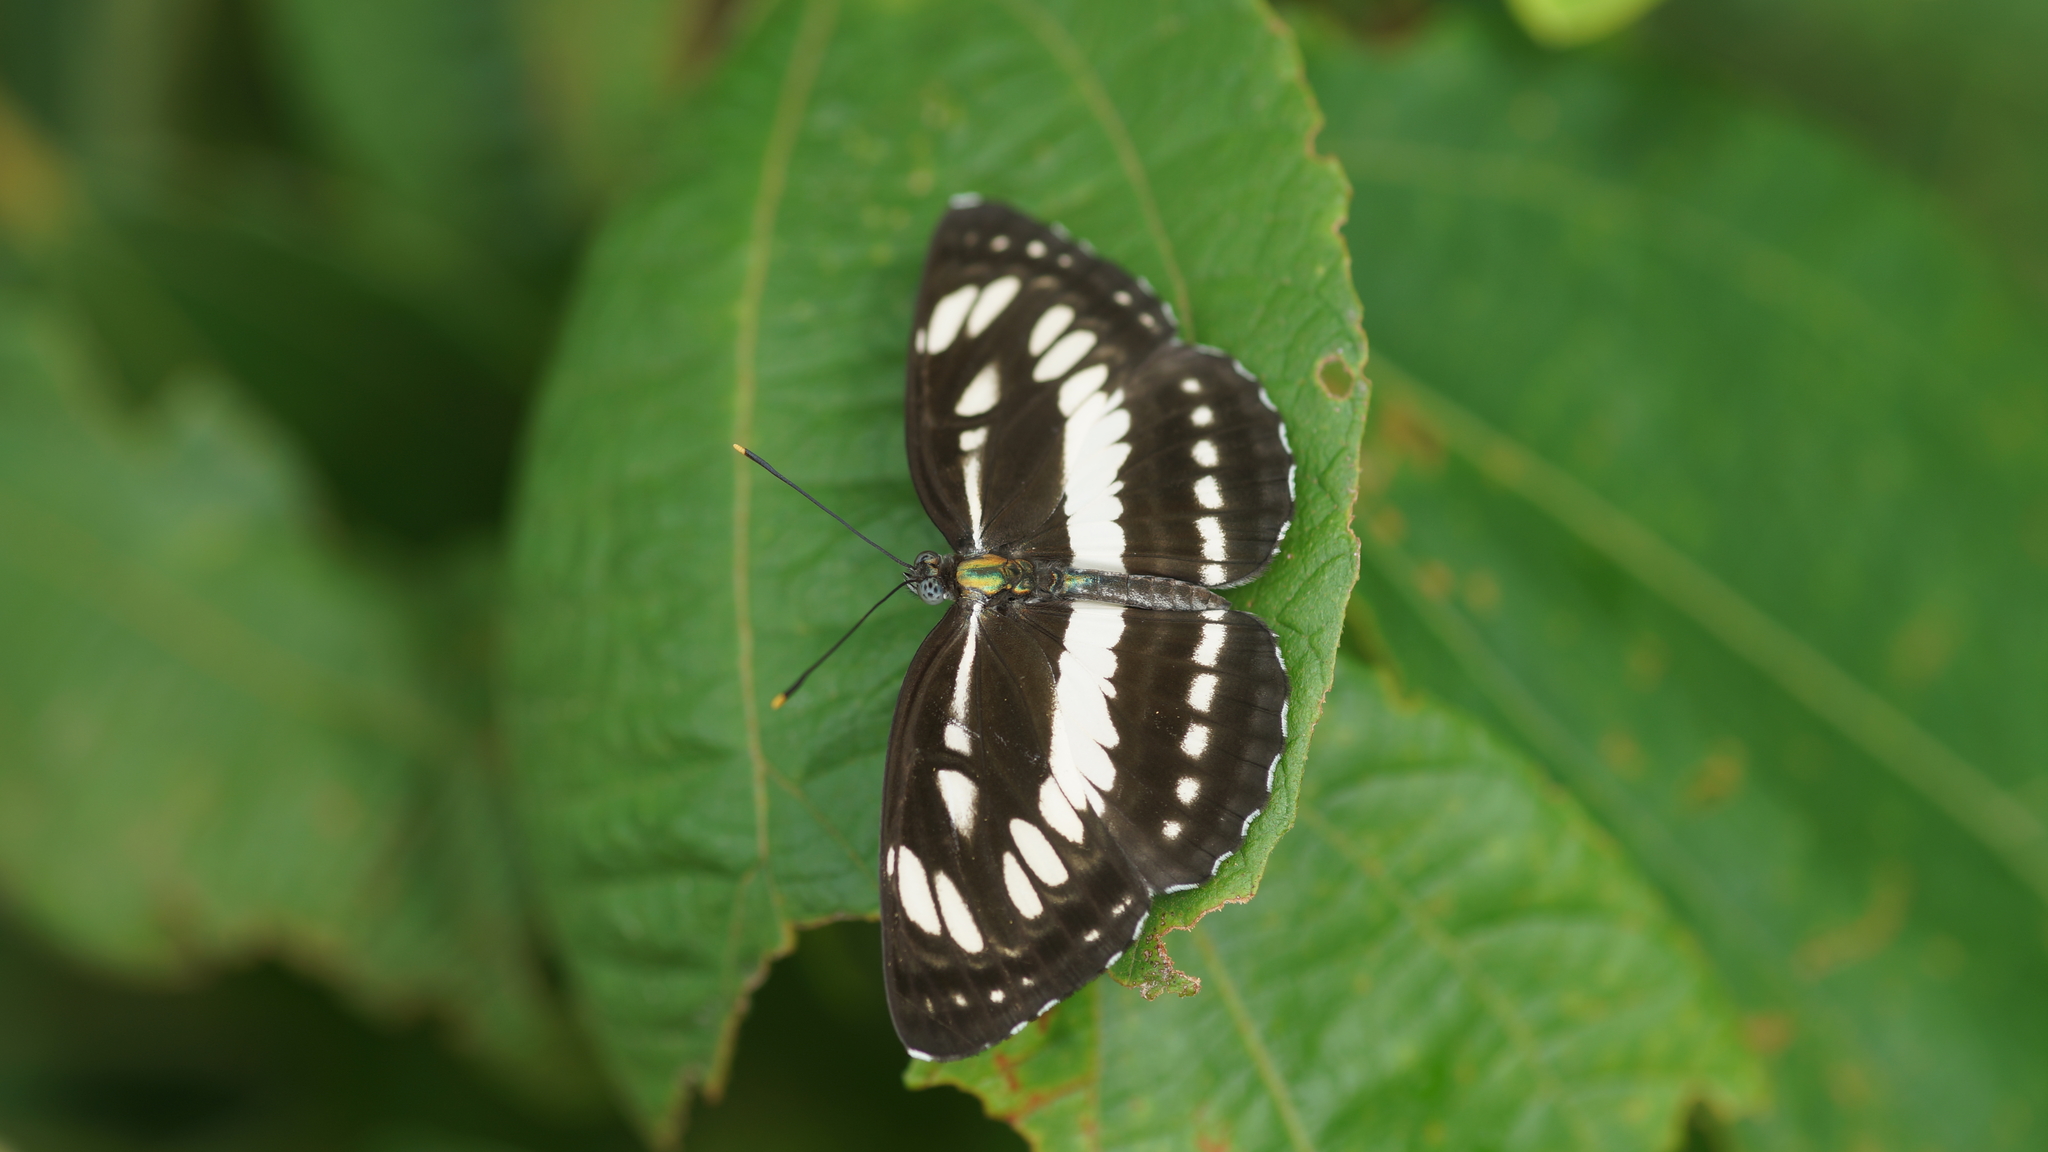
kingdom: Animalia
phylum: Arthropoda
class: Insecta
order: Lepidoptera
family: Nymphalidae
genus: Neptis
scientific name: Neptis hylas
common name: Common sailer
